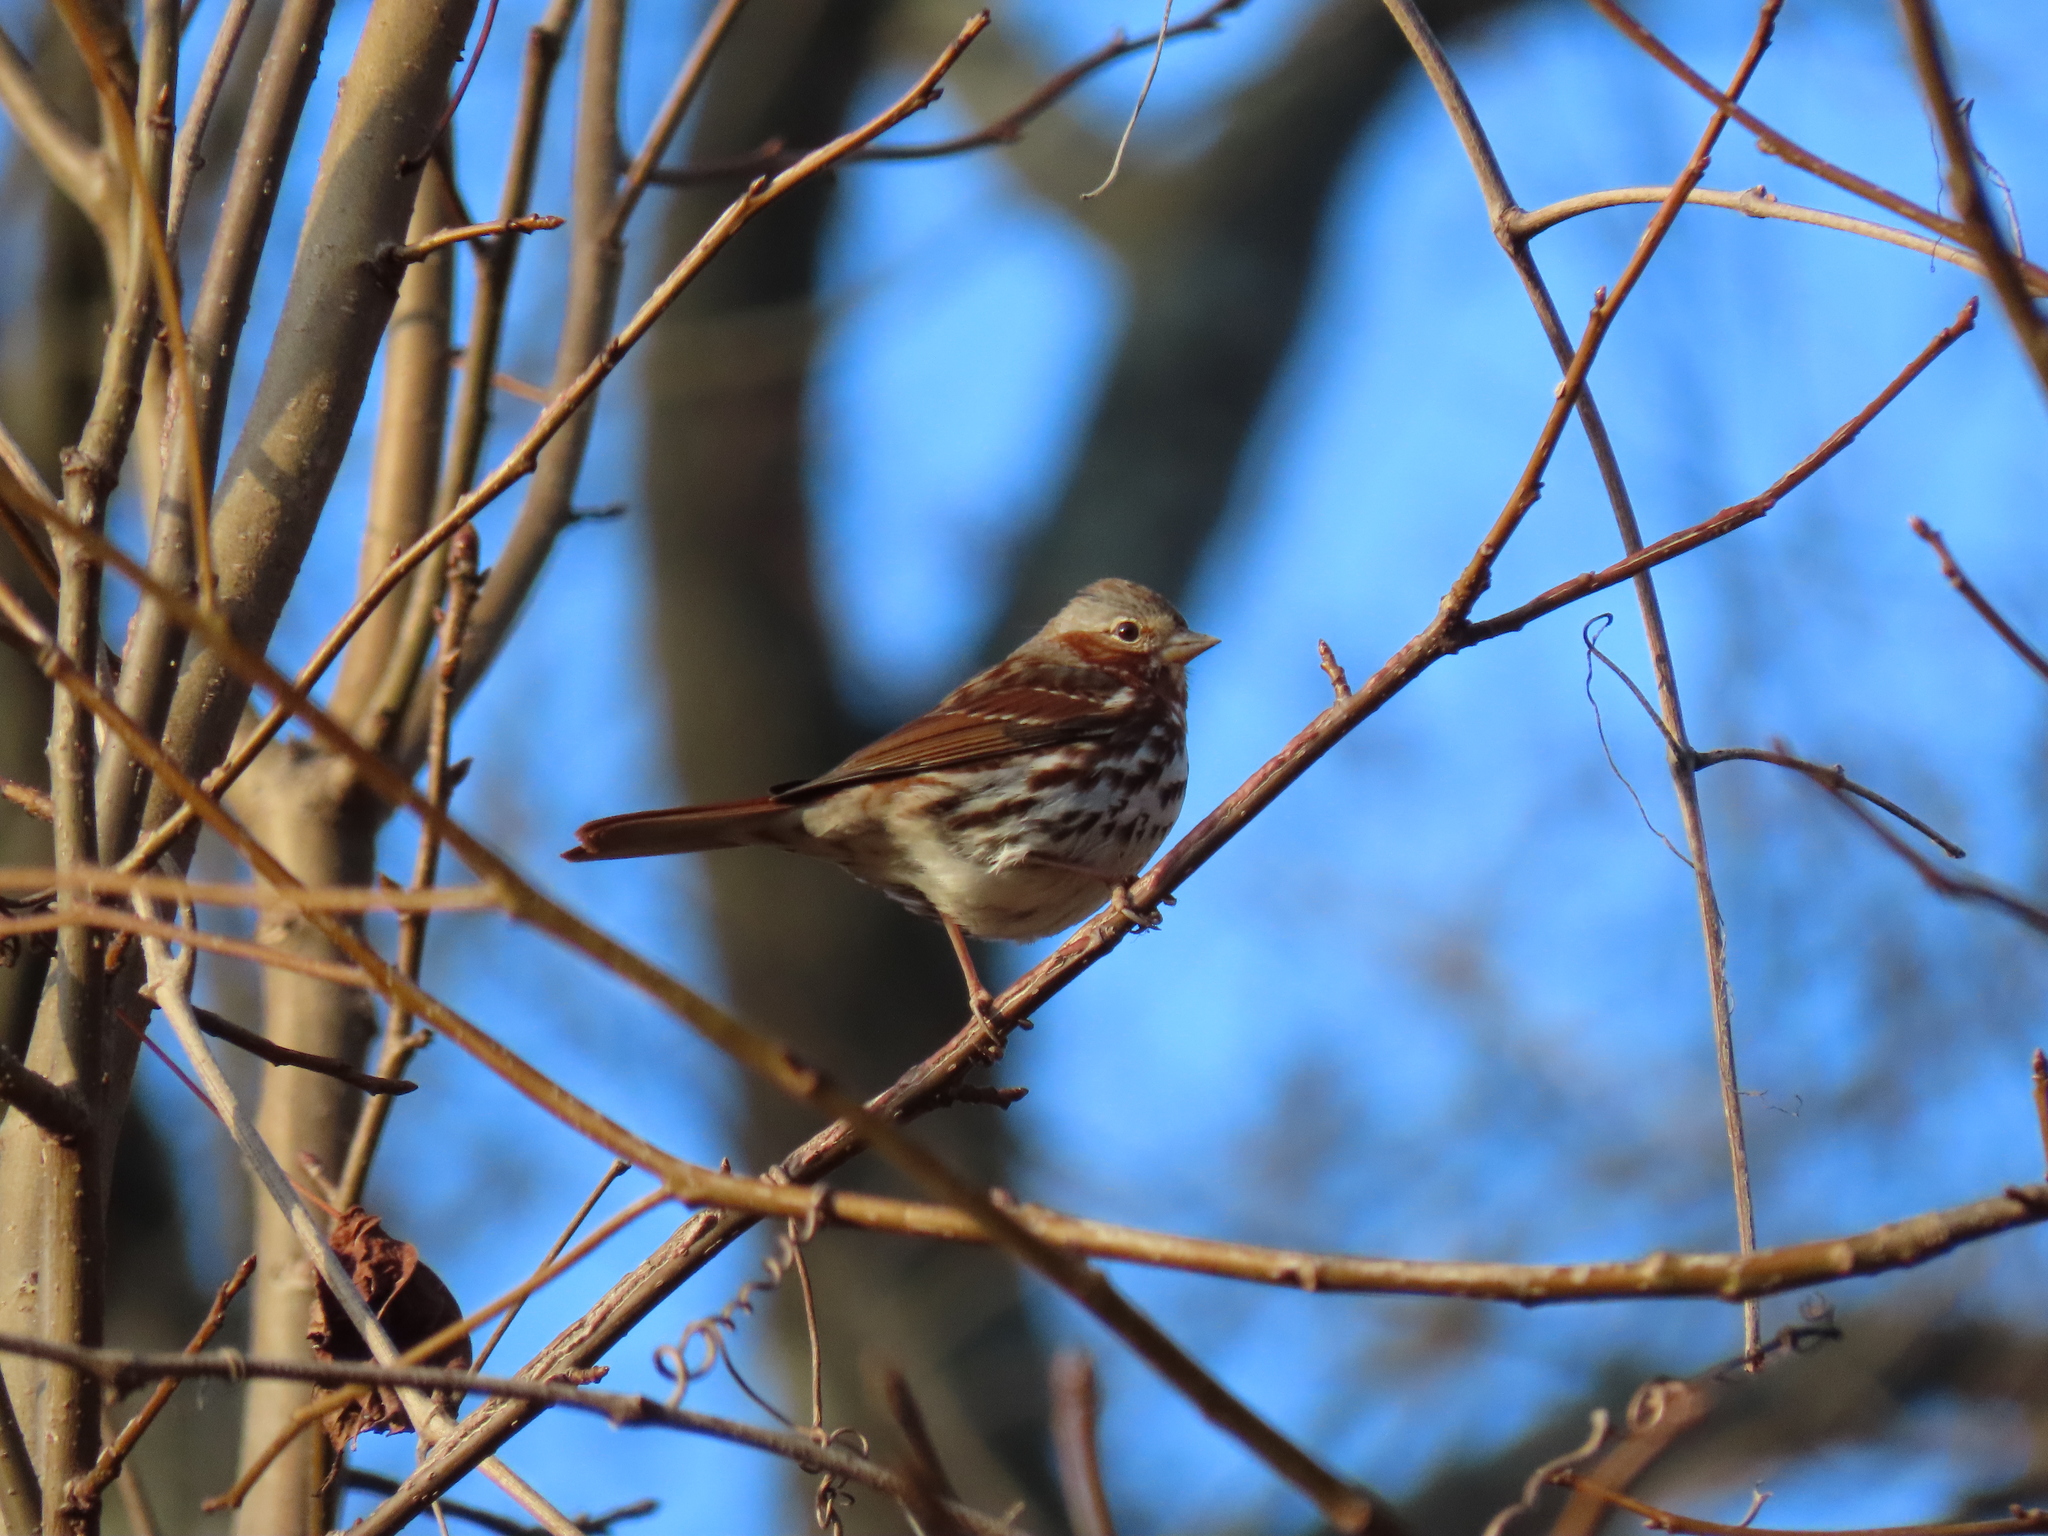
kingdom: Animalia
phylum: Chordata
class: Aves
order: Passeriformes
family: Passerellidae
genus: Passerella
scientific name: Passerella iliaca
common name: Fox sparrow
